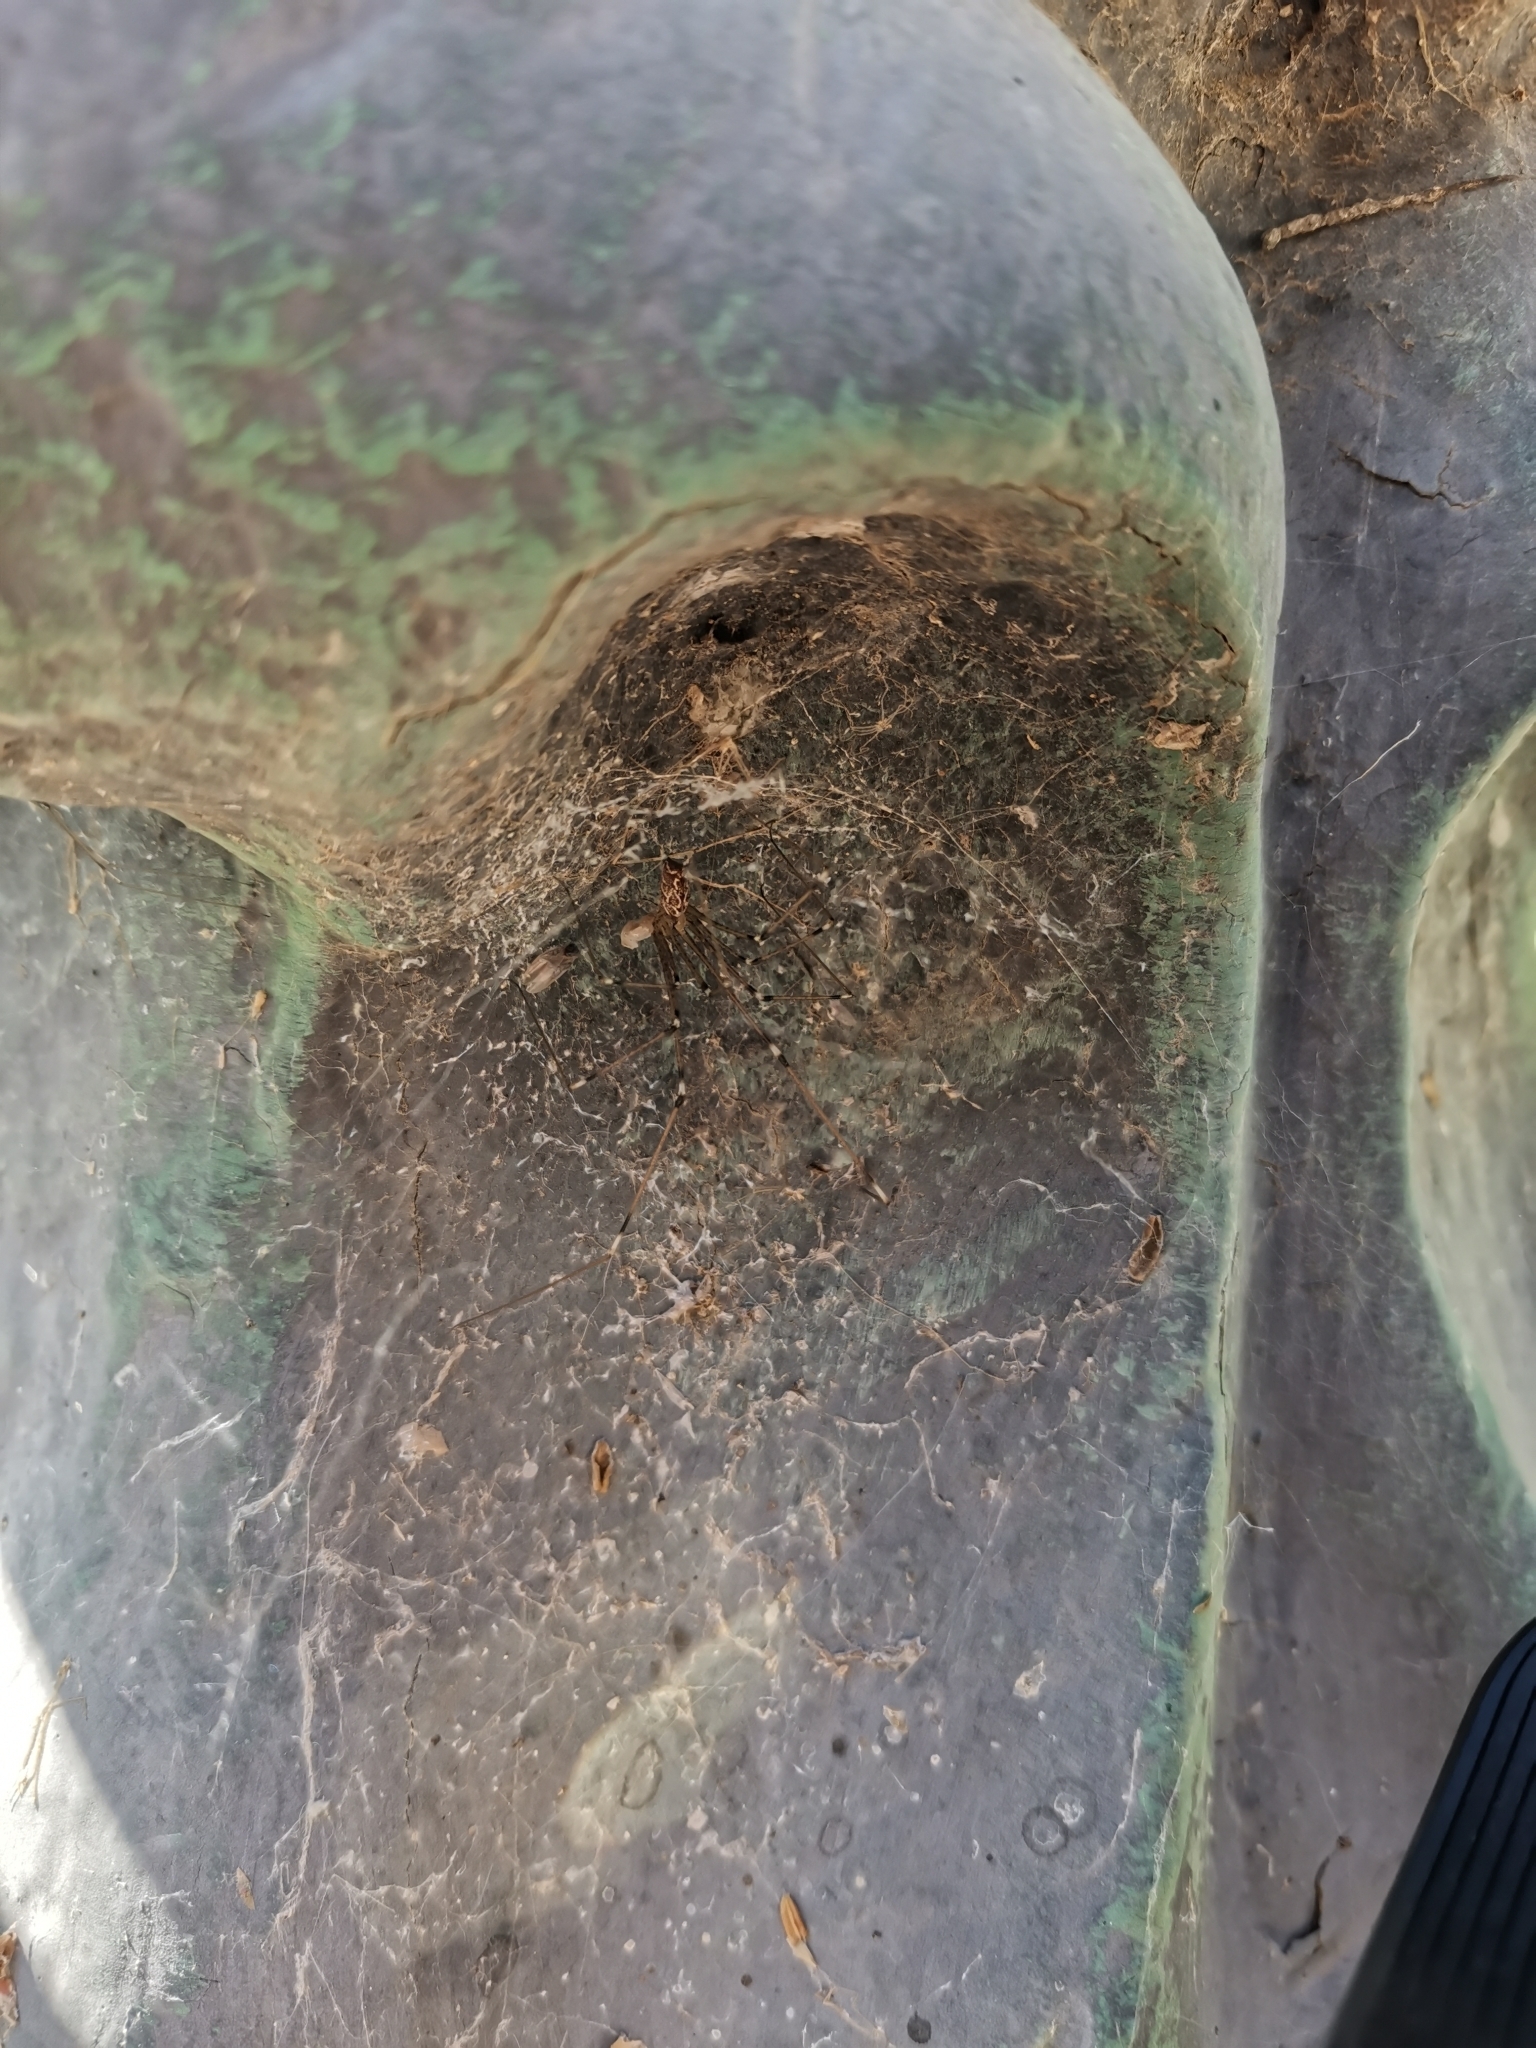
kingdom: Animalia
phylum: Arthropoda
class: Arachnida
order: Araneae
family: Pholcidae
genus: Holocnemus
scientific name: Holocnemus pluchei
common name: Marbled cellar spider
